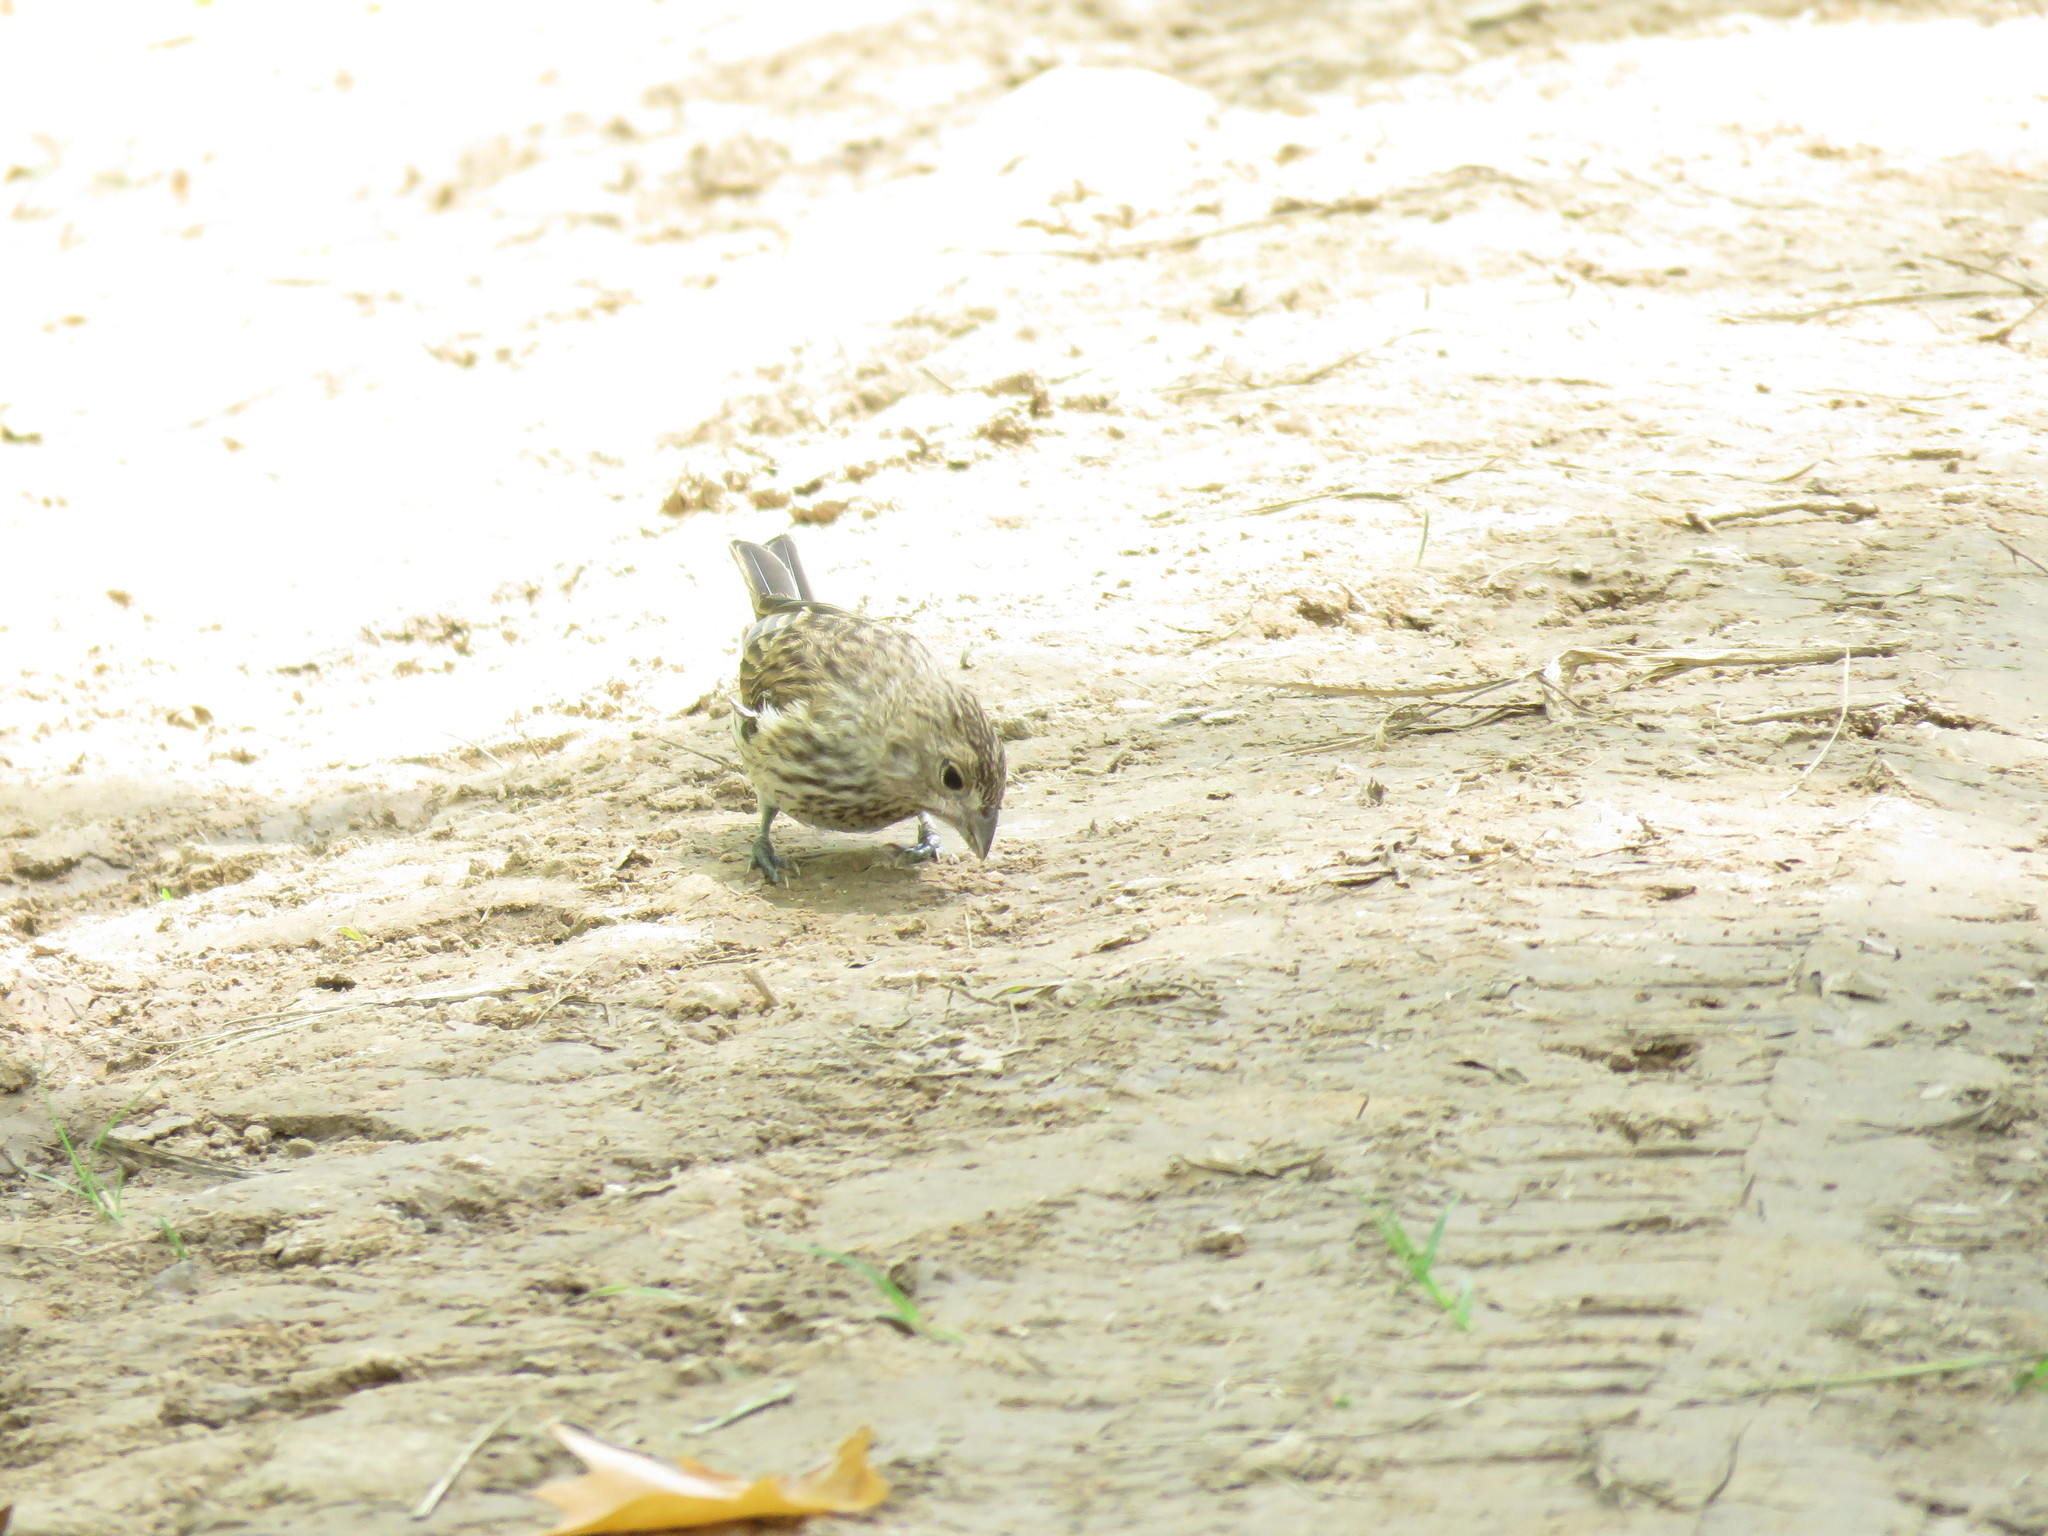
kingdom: Animalia
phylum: Chordata
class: Aves
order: Passeriformes
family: Thraupidae
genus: Sicalis
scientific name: Sicalis flaveola
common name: Saffron finch
